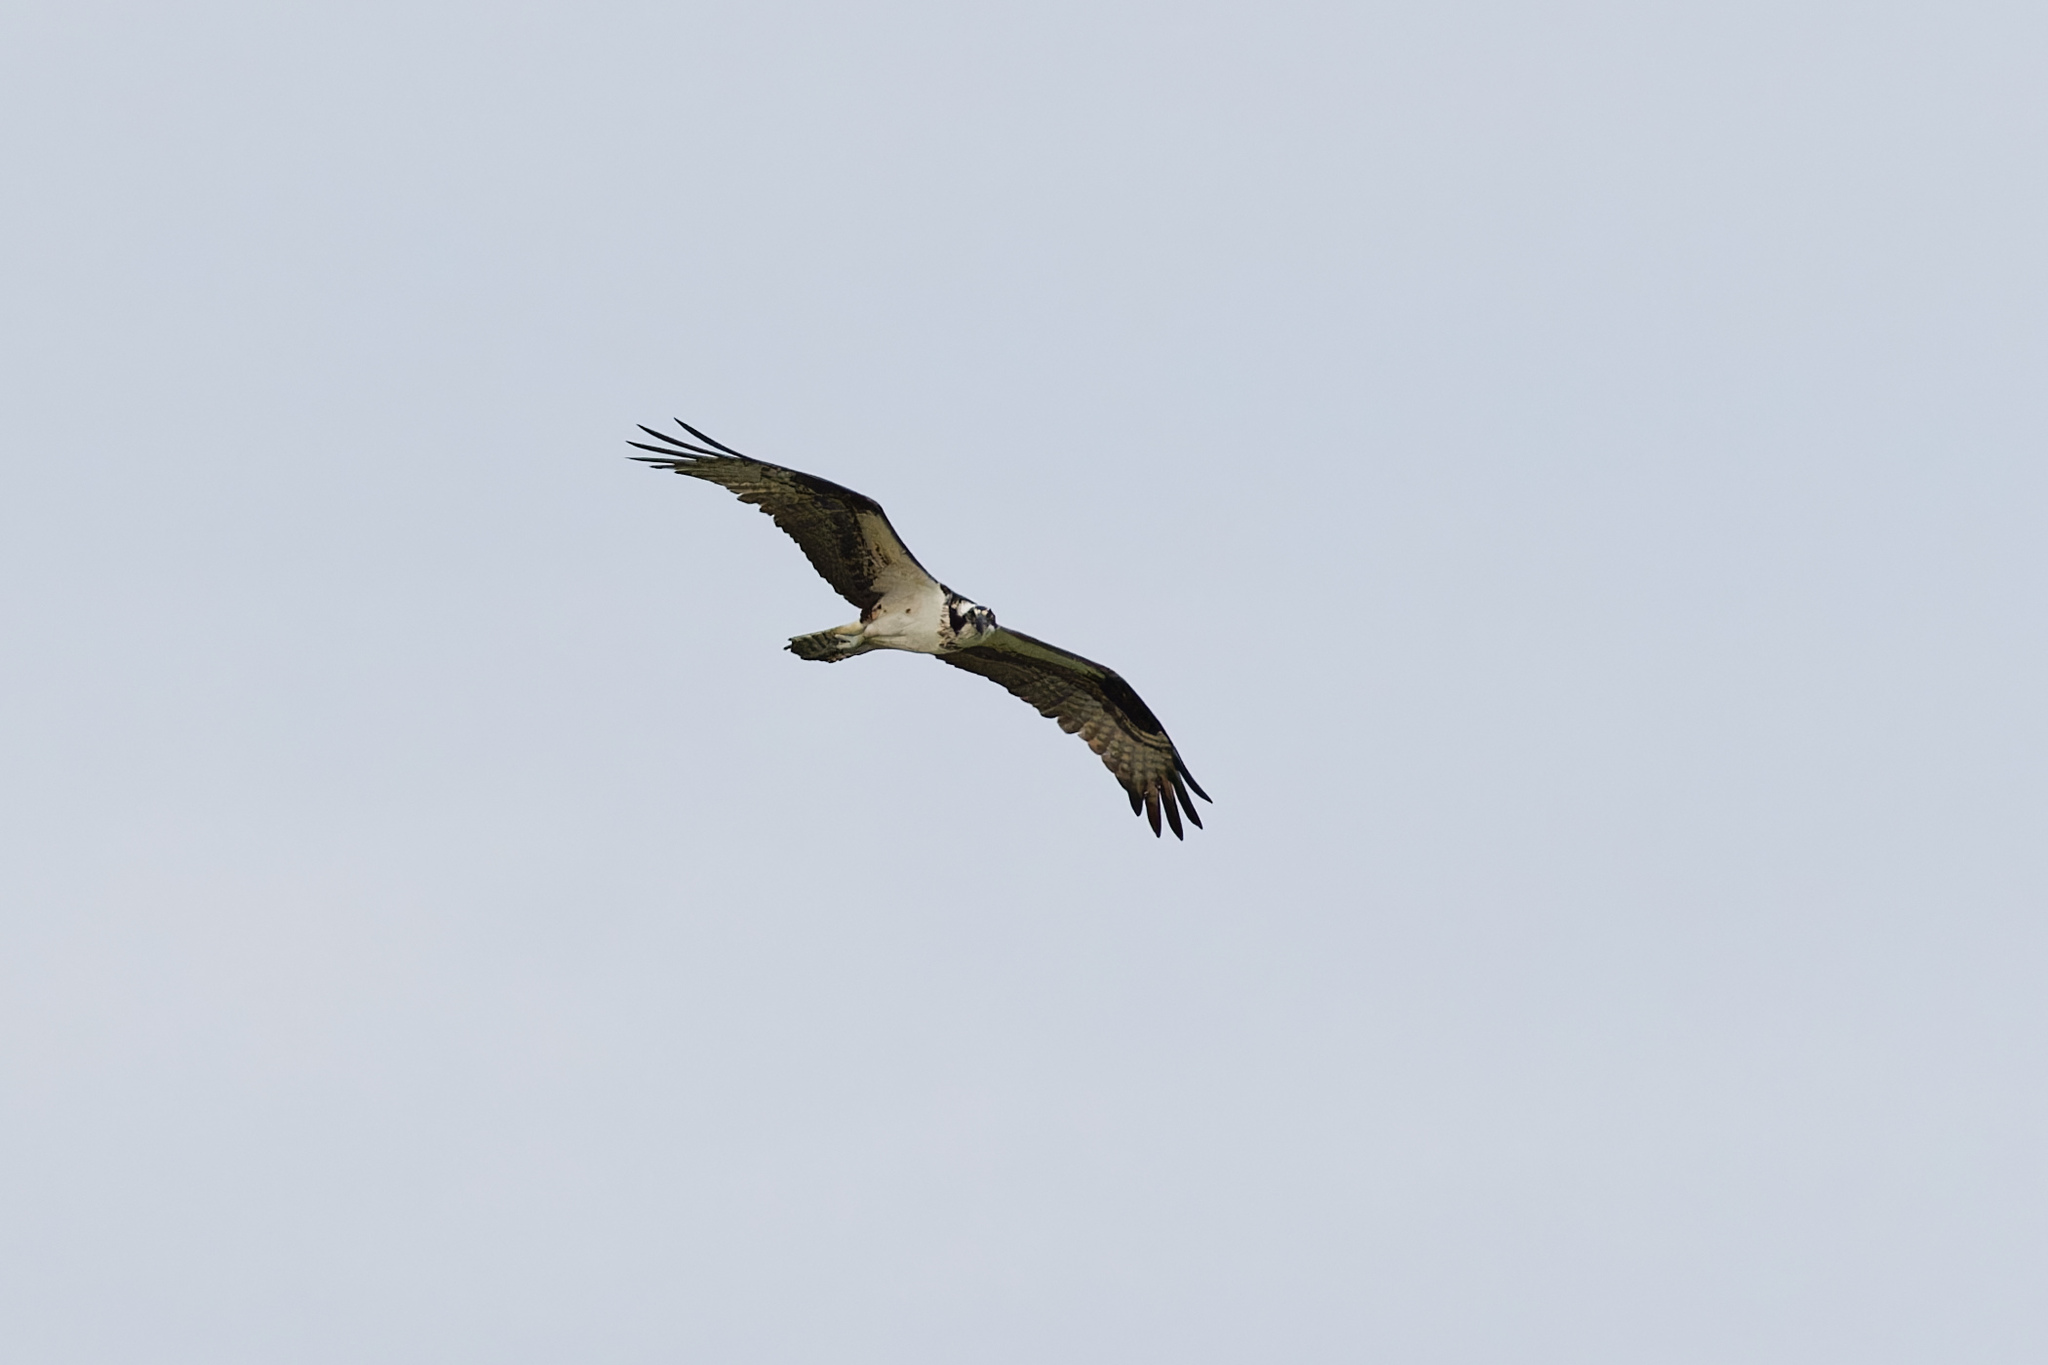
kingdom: Animalia
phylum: Chordata
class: Aves
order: Accipitriformes
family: Pandionidae
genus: Pandion
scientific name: Pandion haliaetus
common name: Osprey
